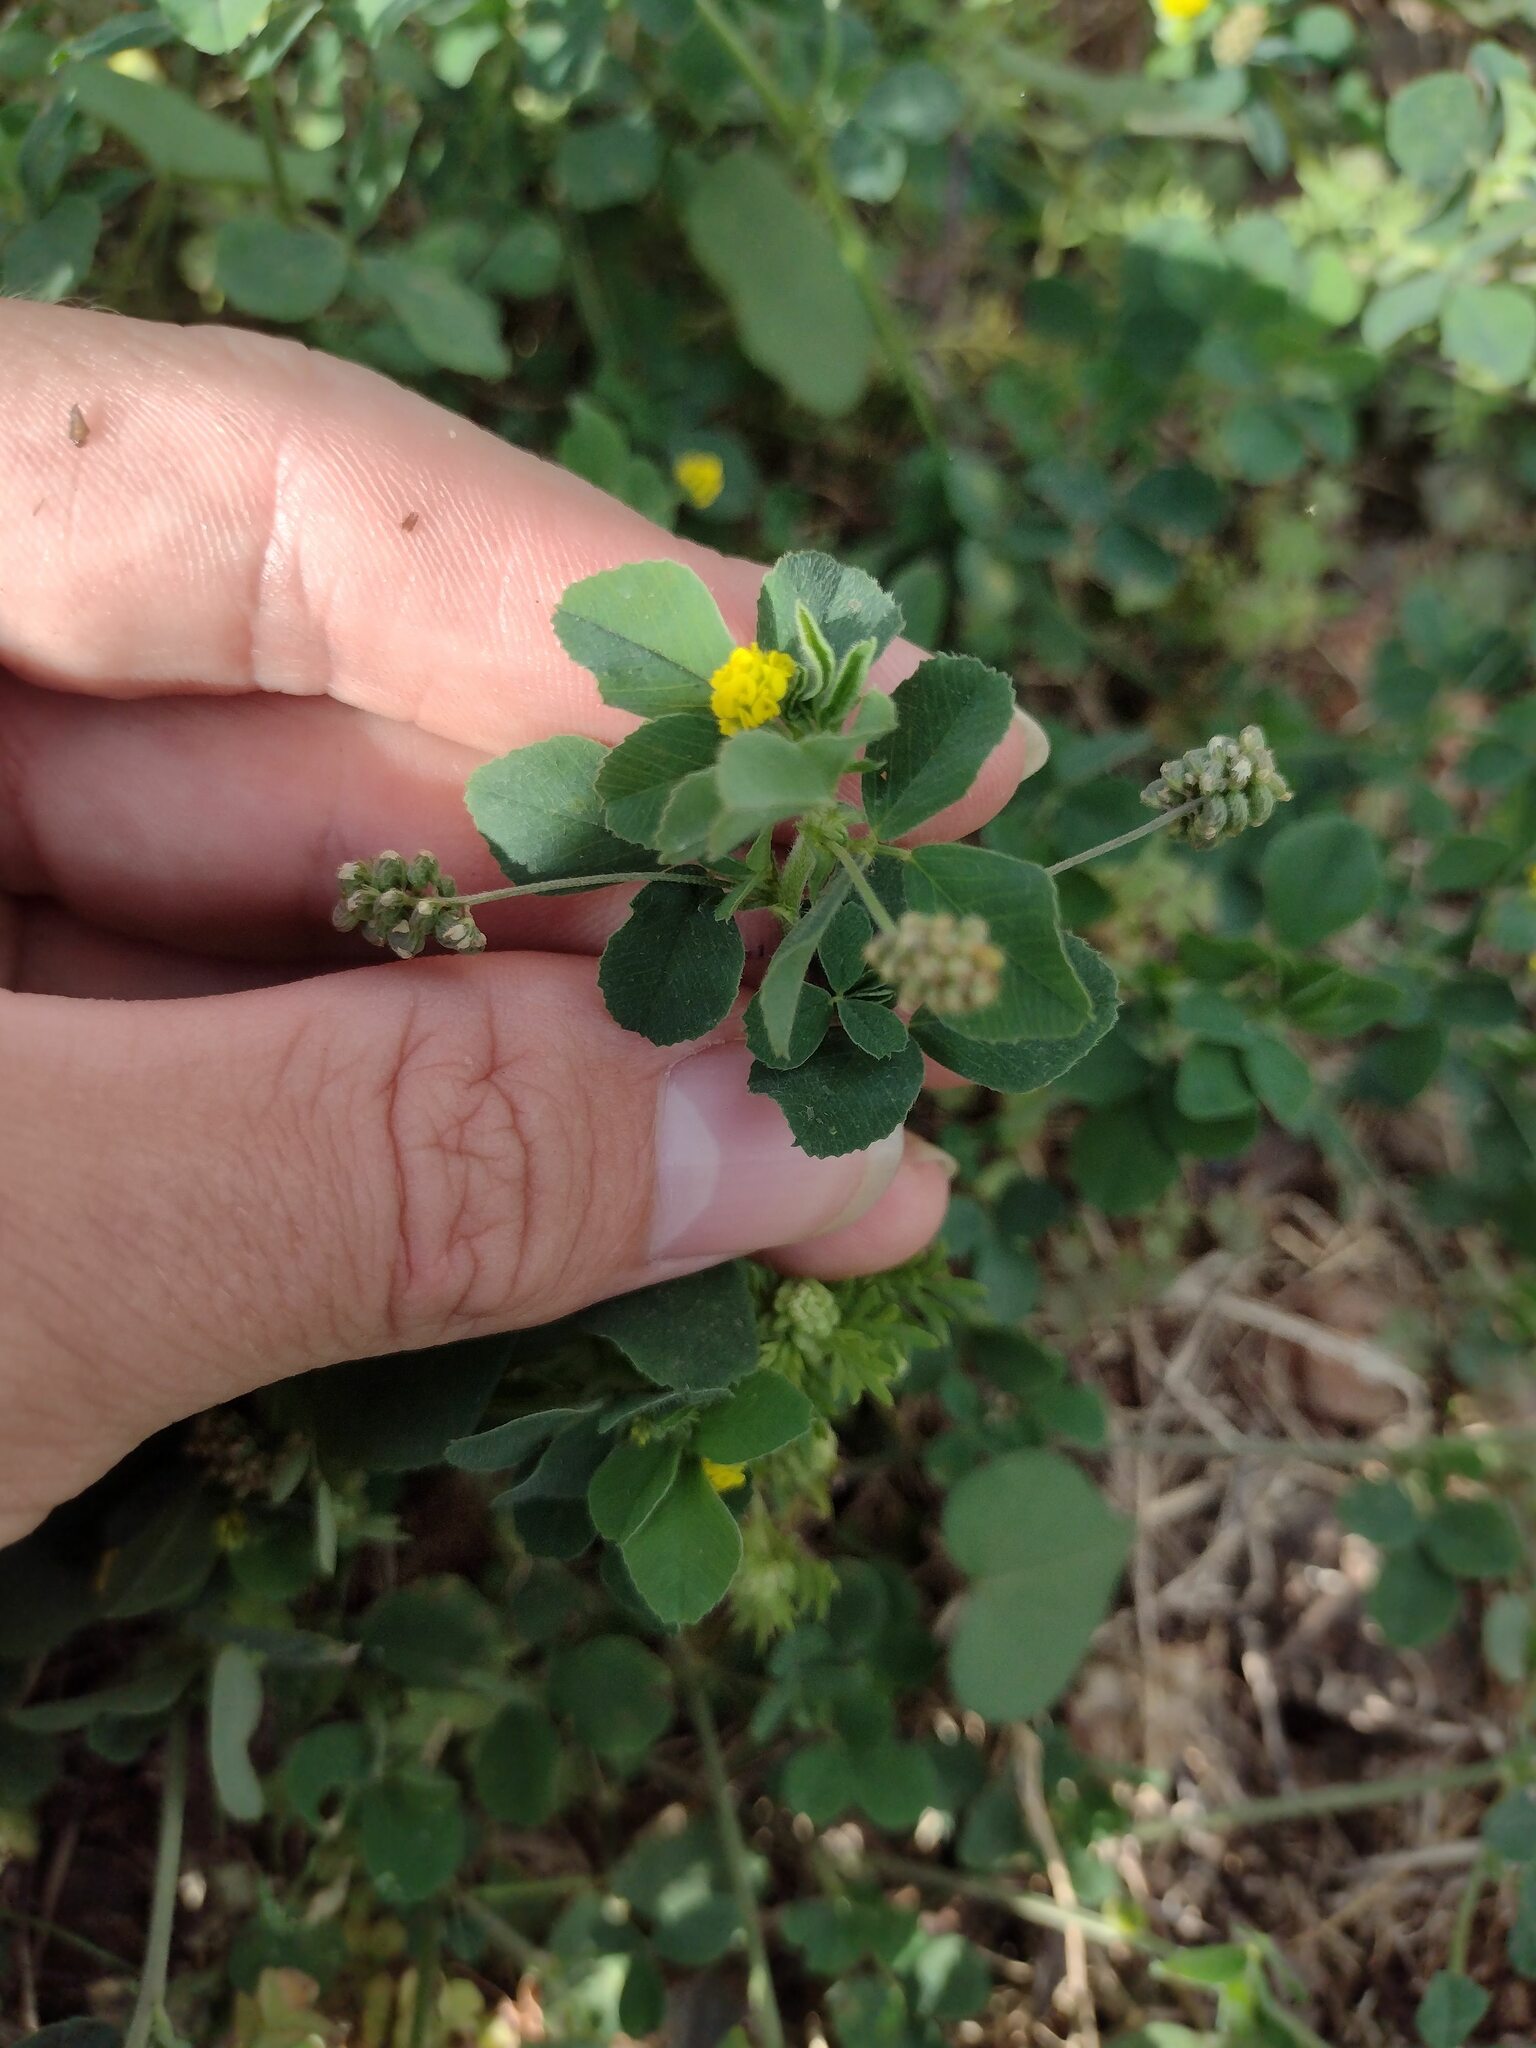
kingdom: Plantae
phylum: Tracheophyta
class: Magnoliopsida
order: Fabales
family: Fabaceae
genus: Medicago
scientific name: Medicago lupulina
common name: Black medick
